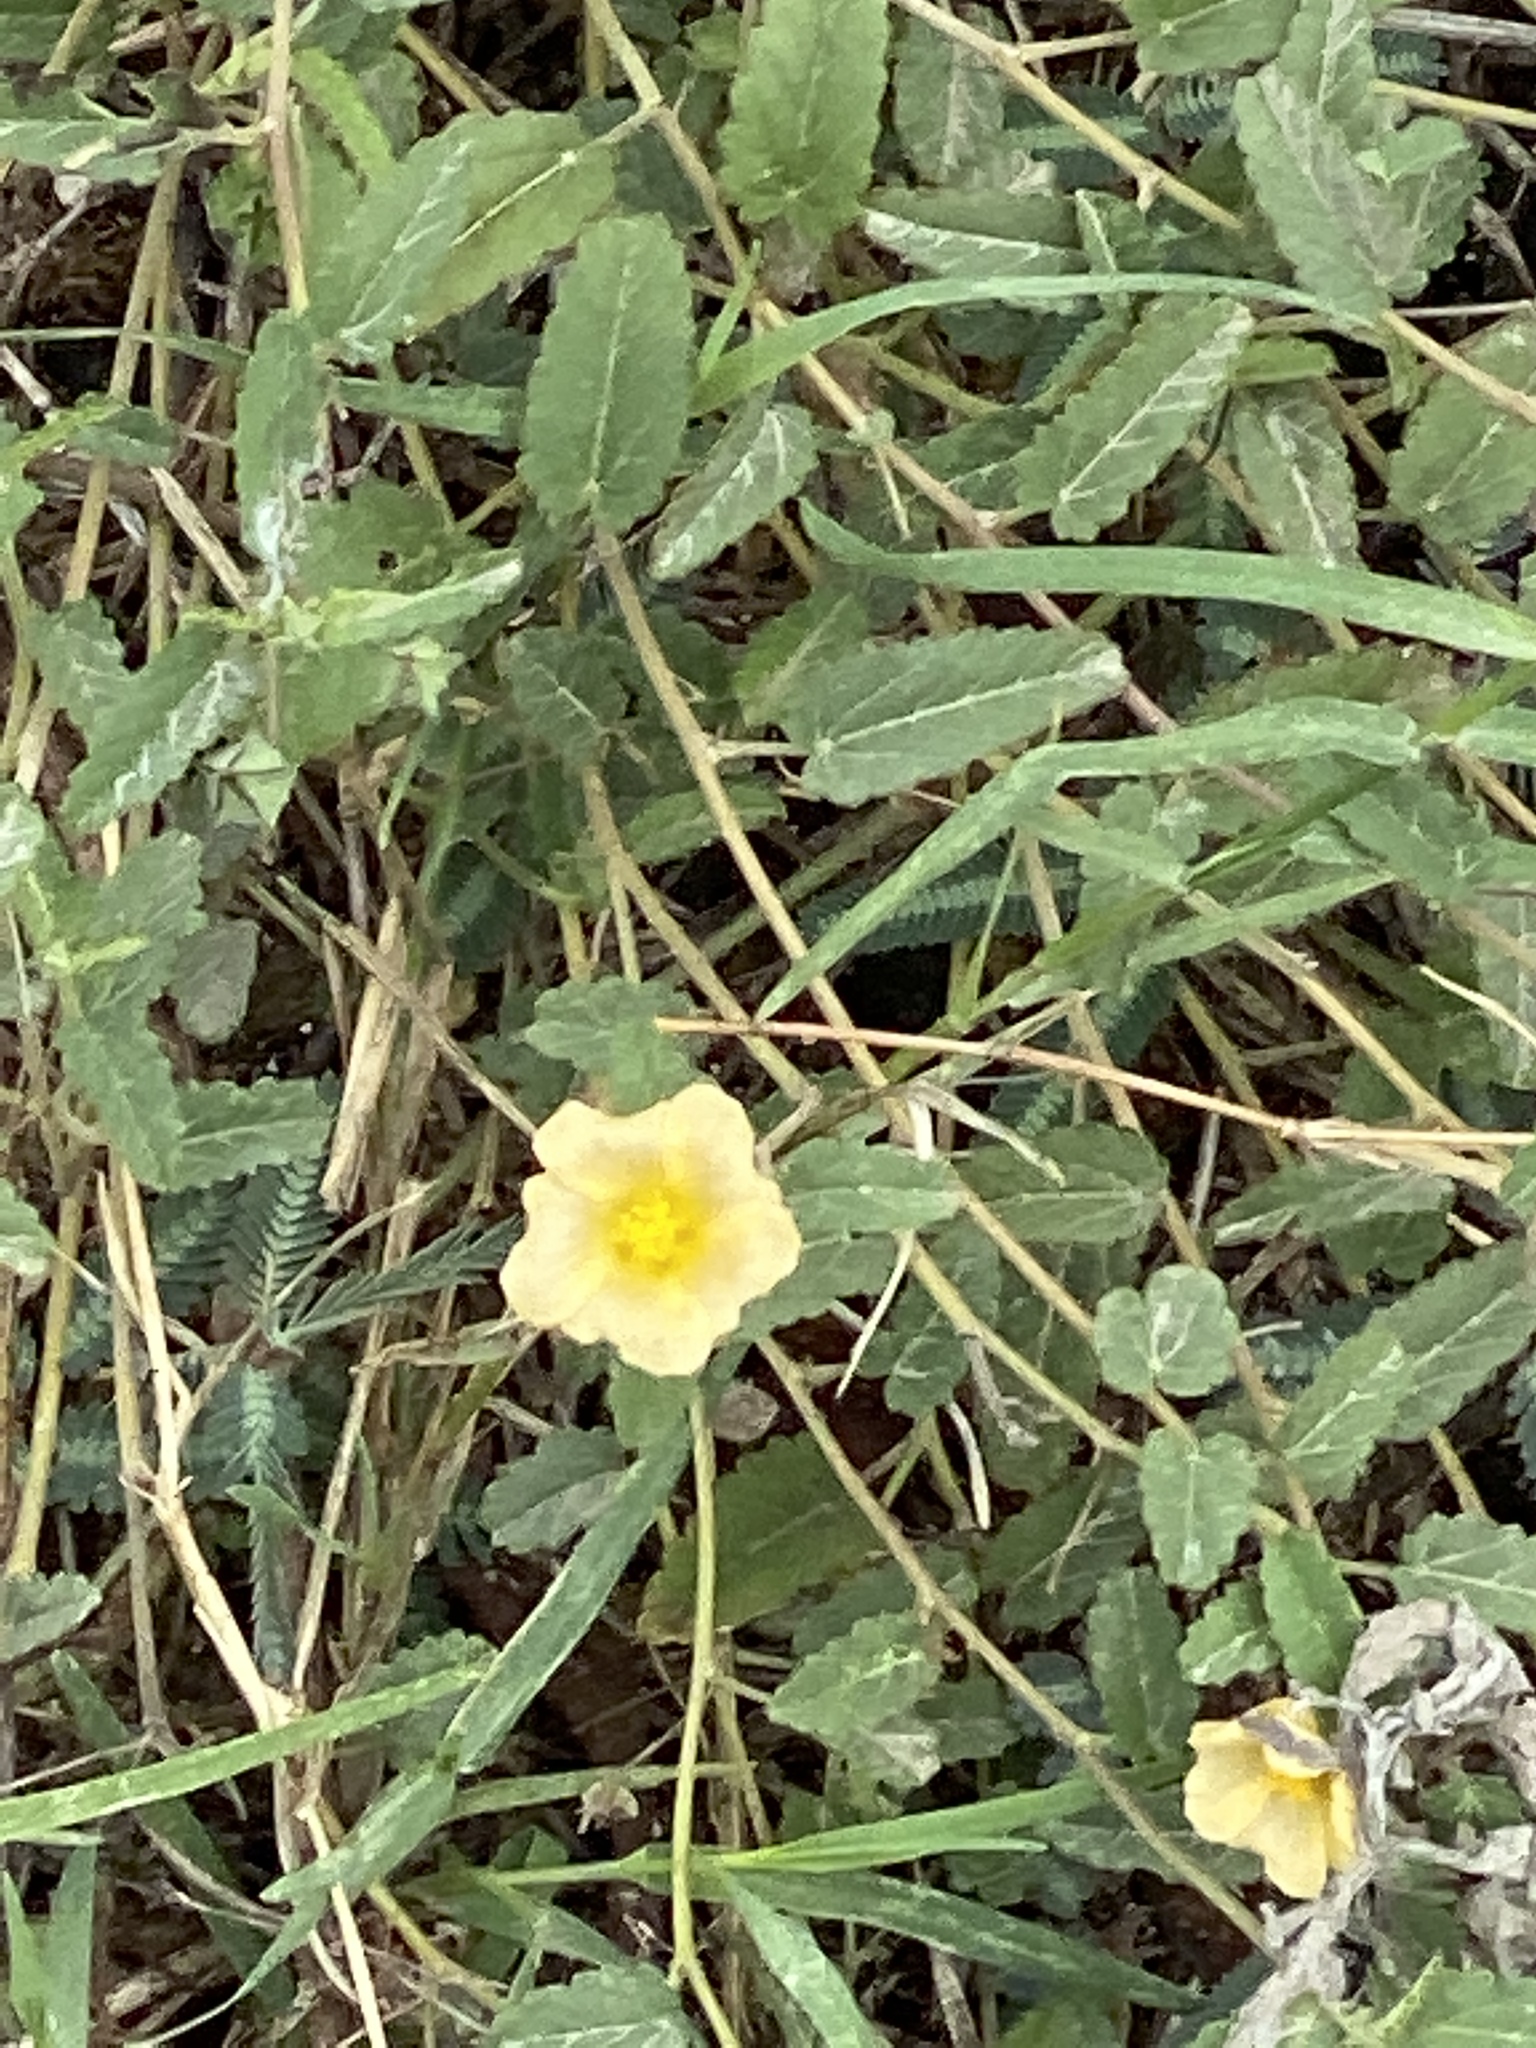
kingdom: Plantae
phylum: Tracheophyta
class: Magnoliopsida
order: Malvales
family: Malvaceae
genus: Sida
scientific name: Sida abutilifolia
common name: Spreading fanpetals
